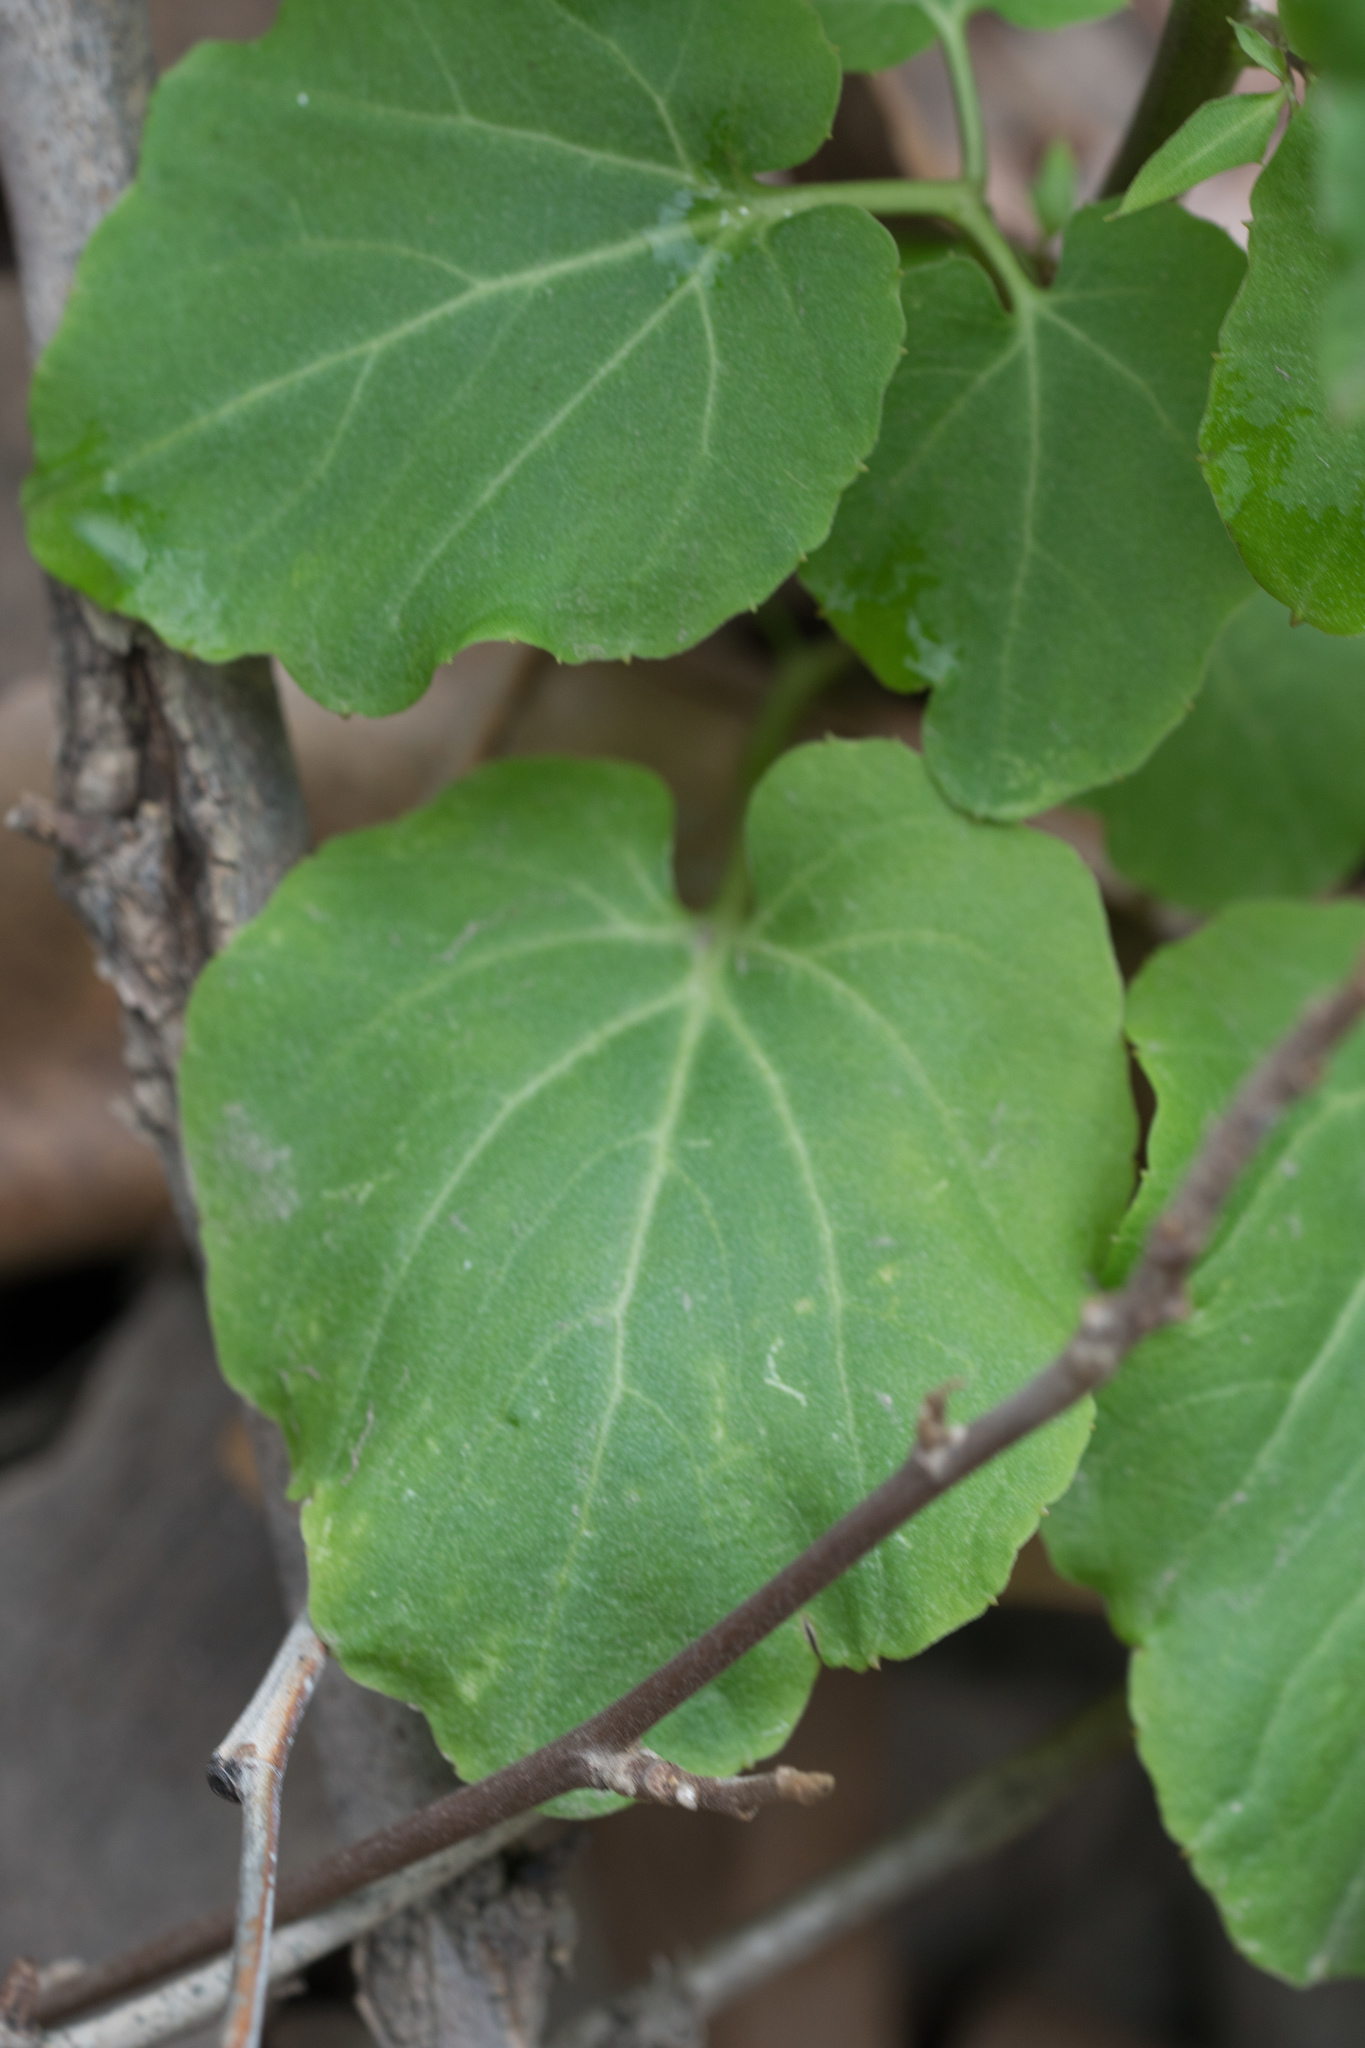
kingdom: Plantae
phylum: Tracheophyta
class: Magnoliopsida
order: Brassicales
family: Brassicaceae
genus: Cardamine
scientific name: Cardamine californica
